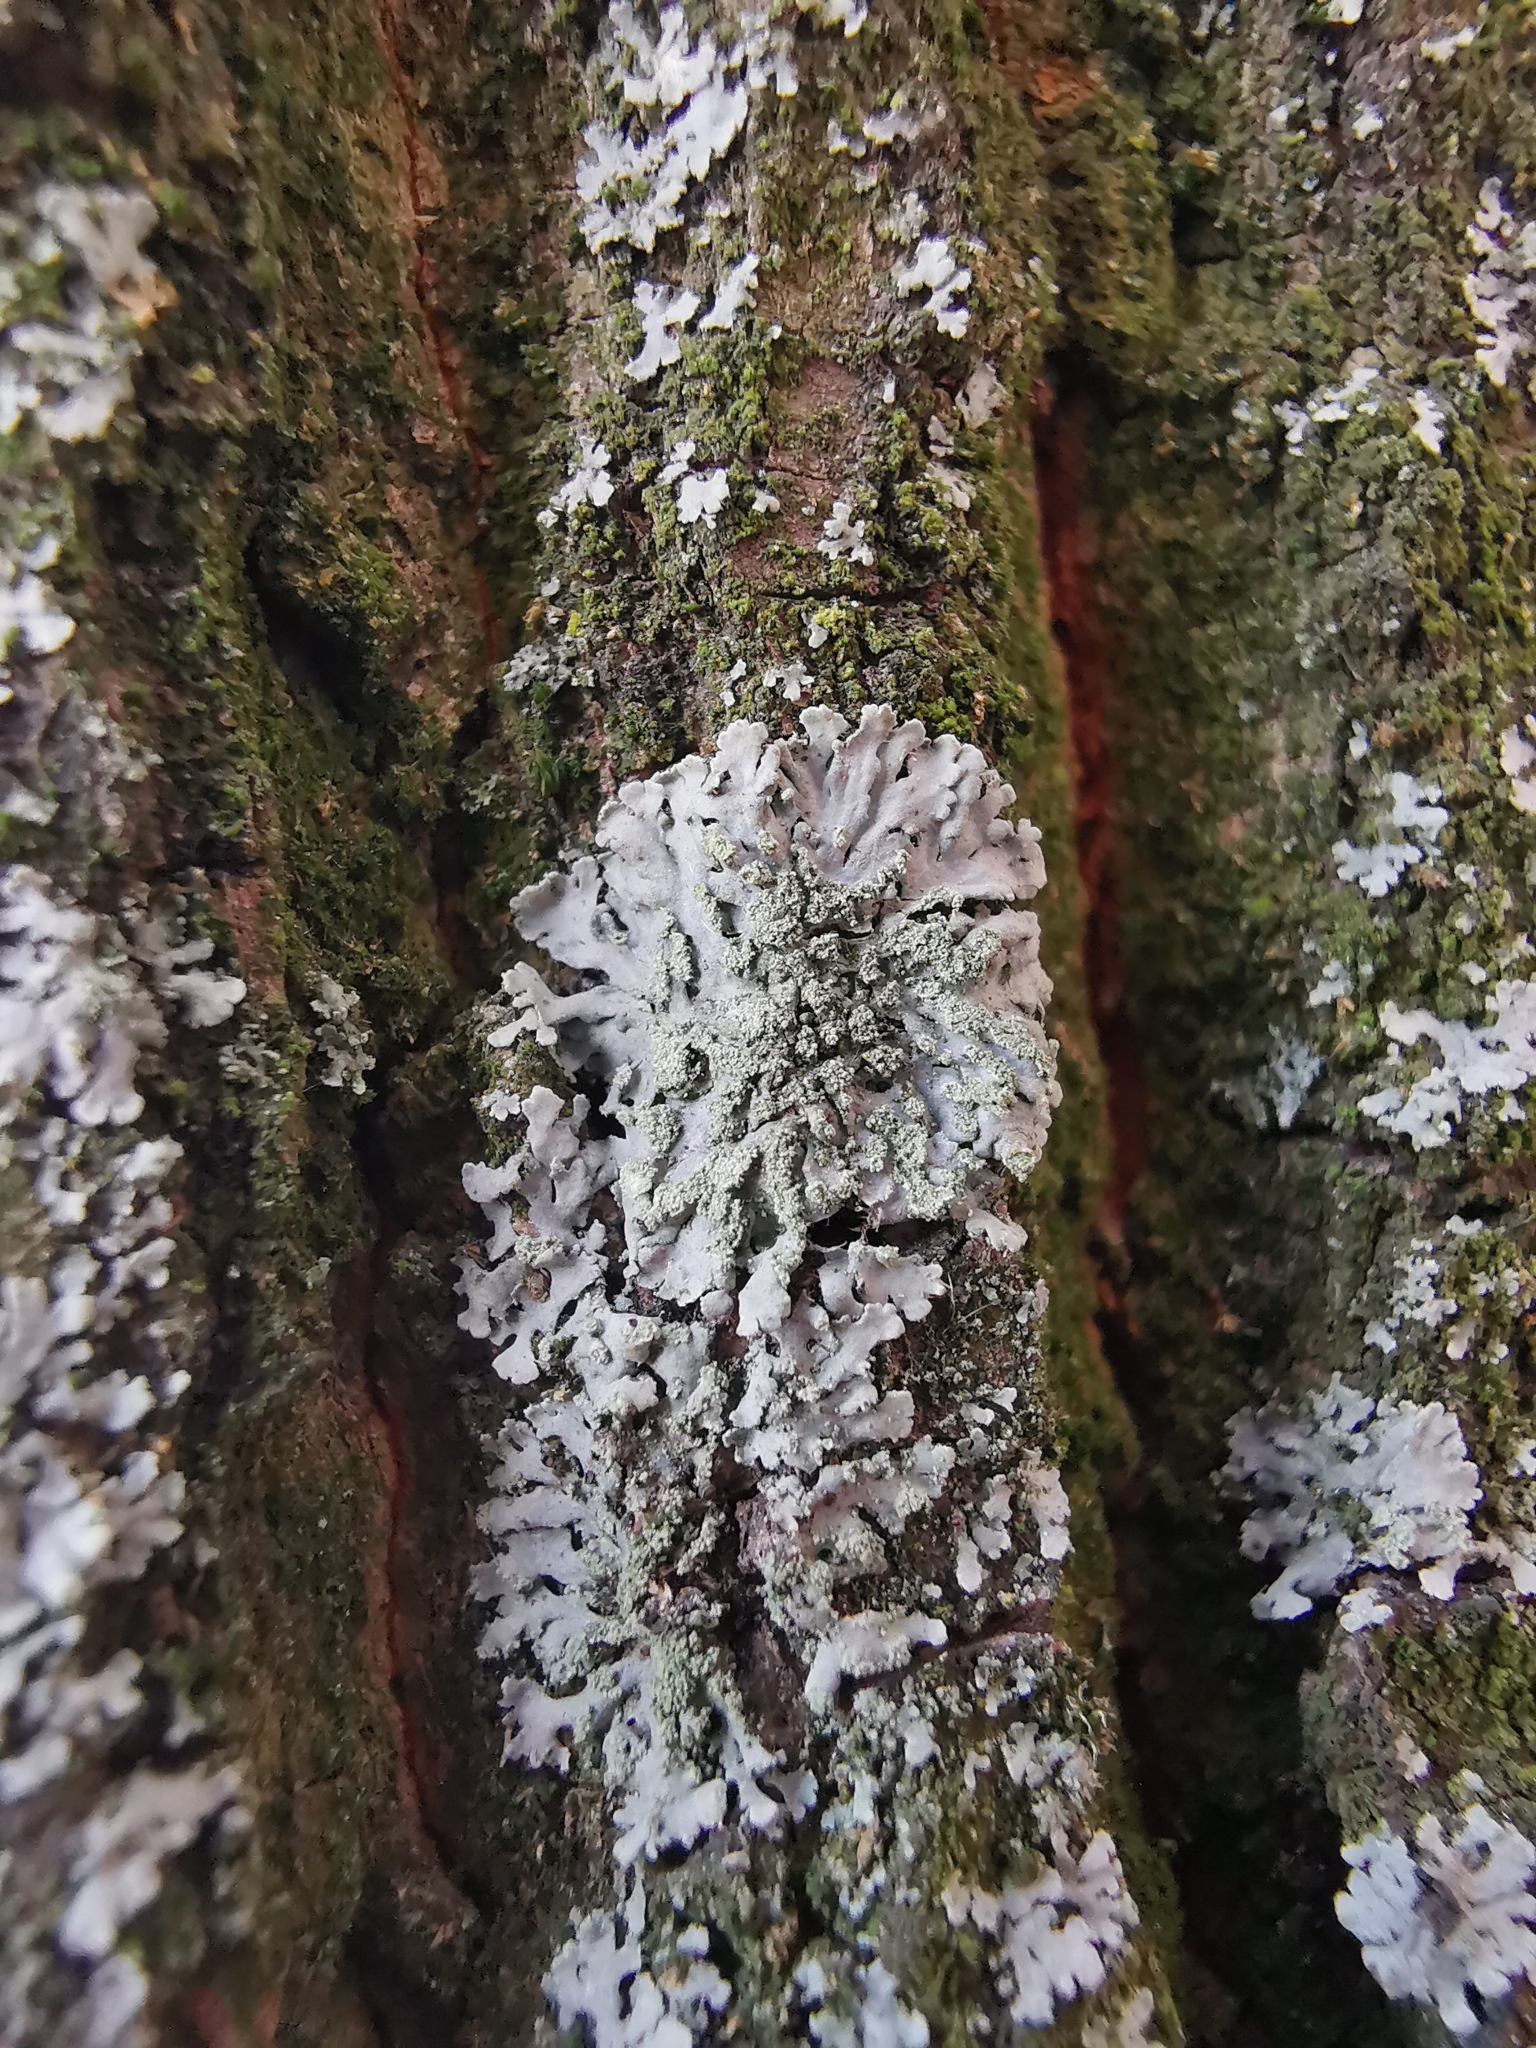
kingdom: Fungi
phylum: Ascomycota
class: Lecanoromycetes
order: Caliciales
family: Physciaceae
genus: Phaeophyscia
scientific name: Phaeophyscia orbicularis
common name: Mealy shadow lichen
